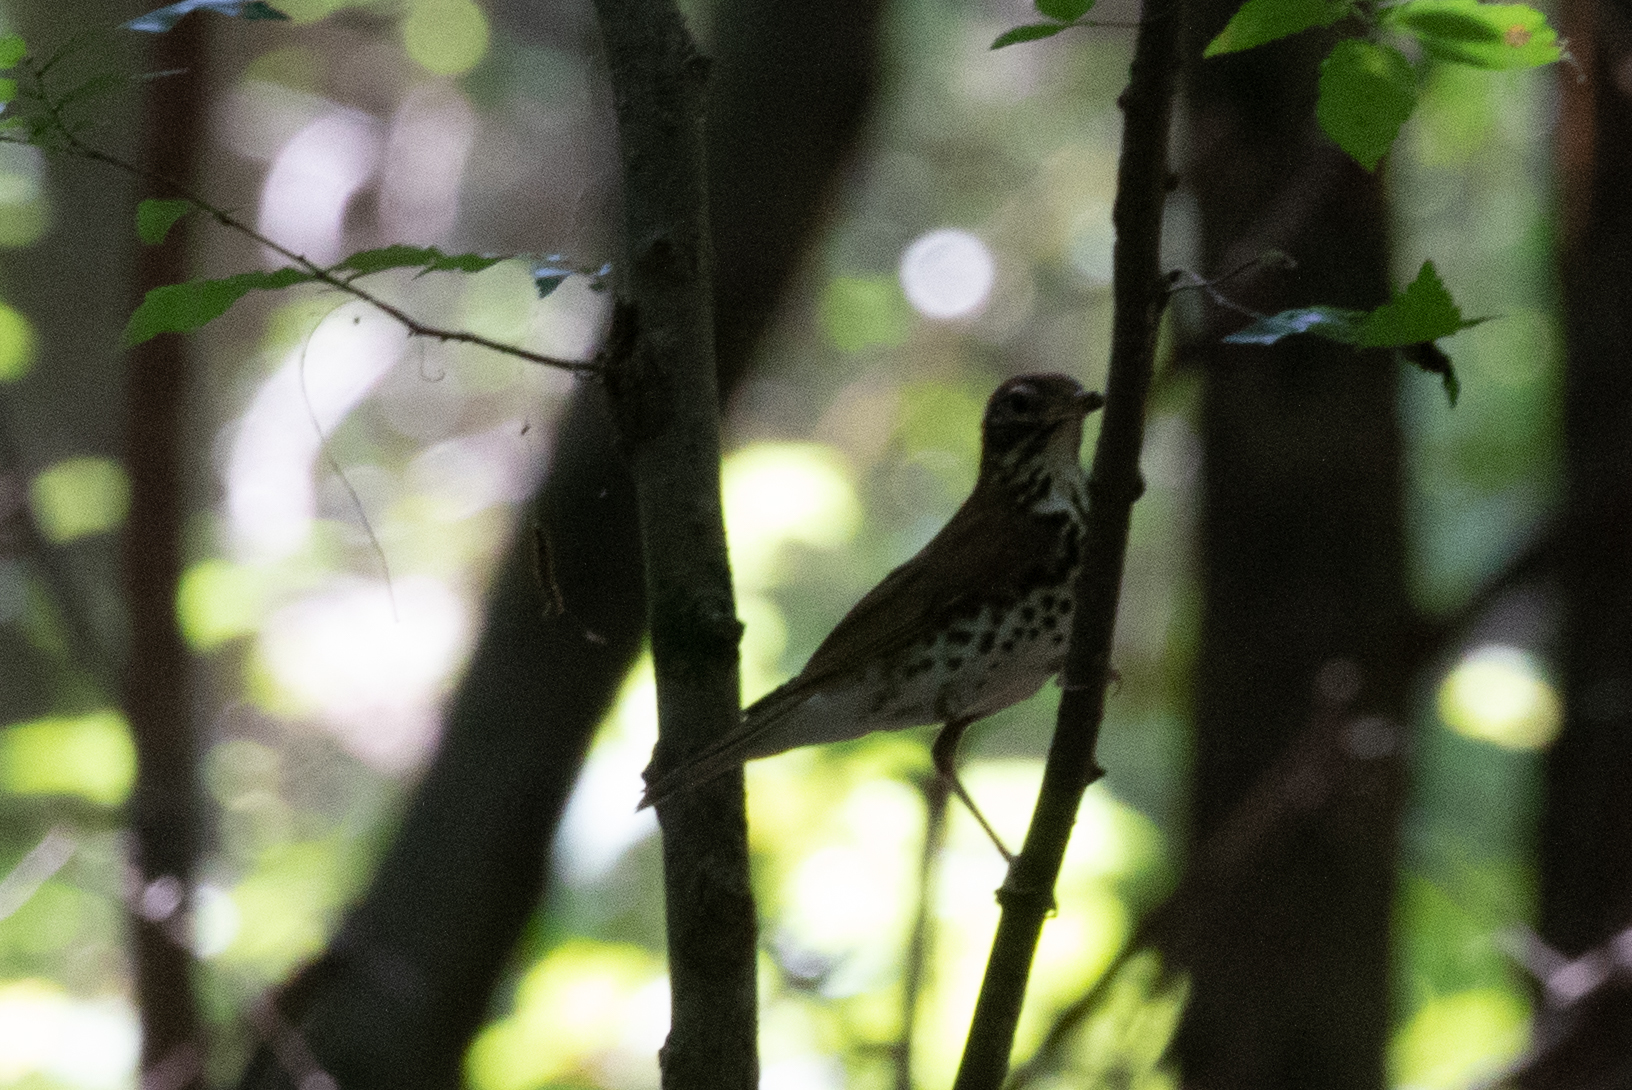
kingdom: Animalia
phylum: Chordata
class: Aves
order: Passeriformes
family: Turdidae
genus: Hylocichla
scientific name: Hylocichla mustelina
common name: Wood thrush
